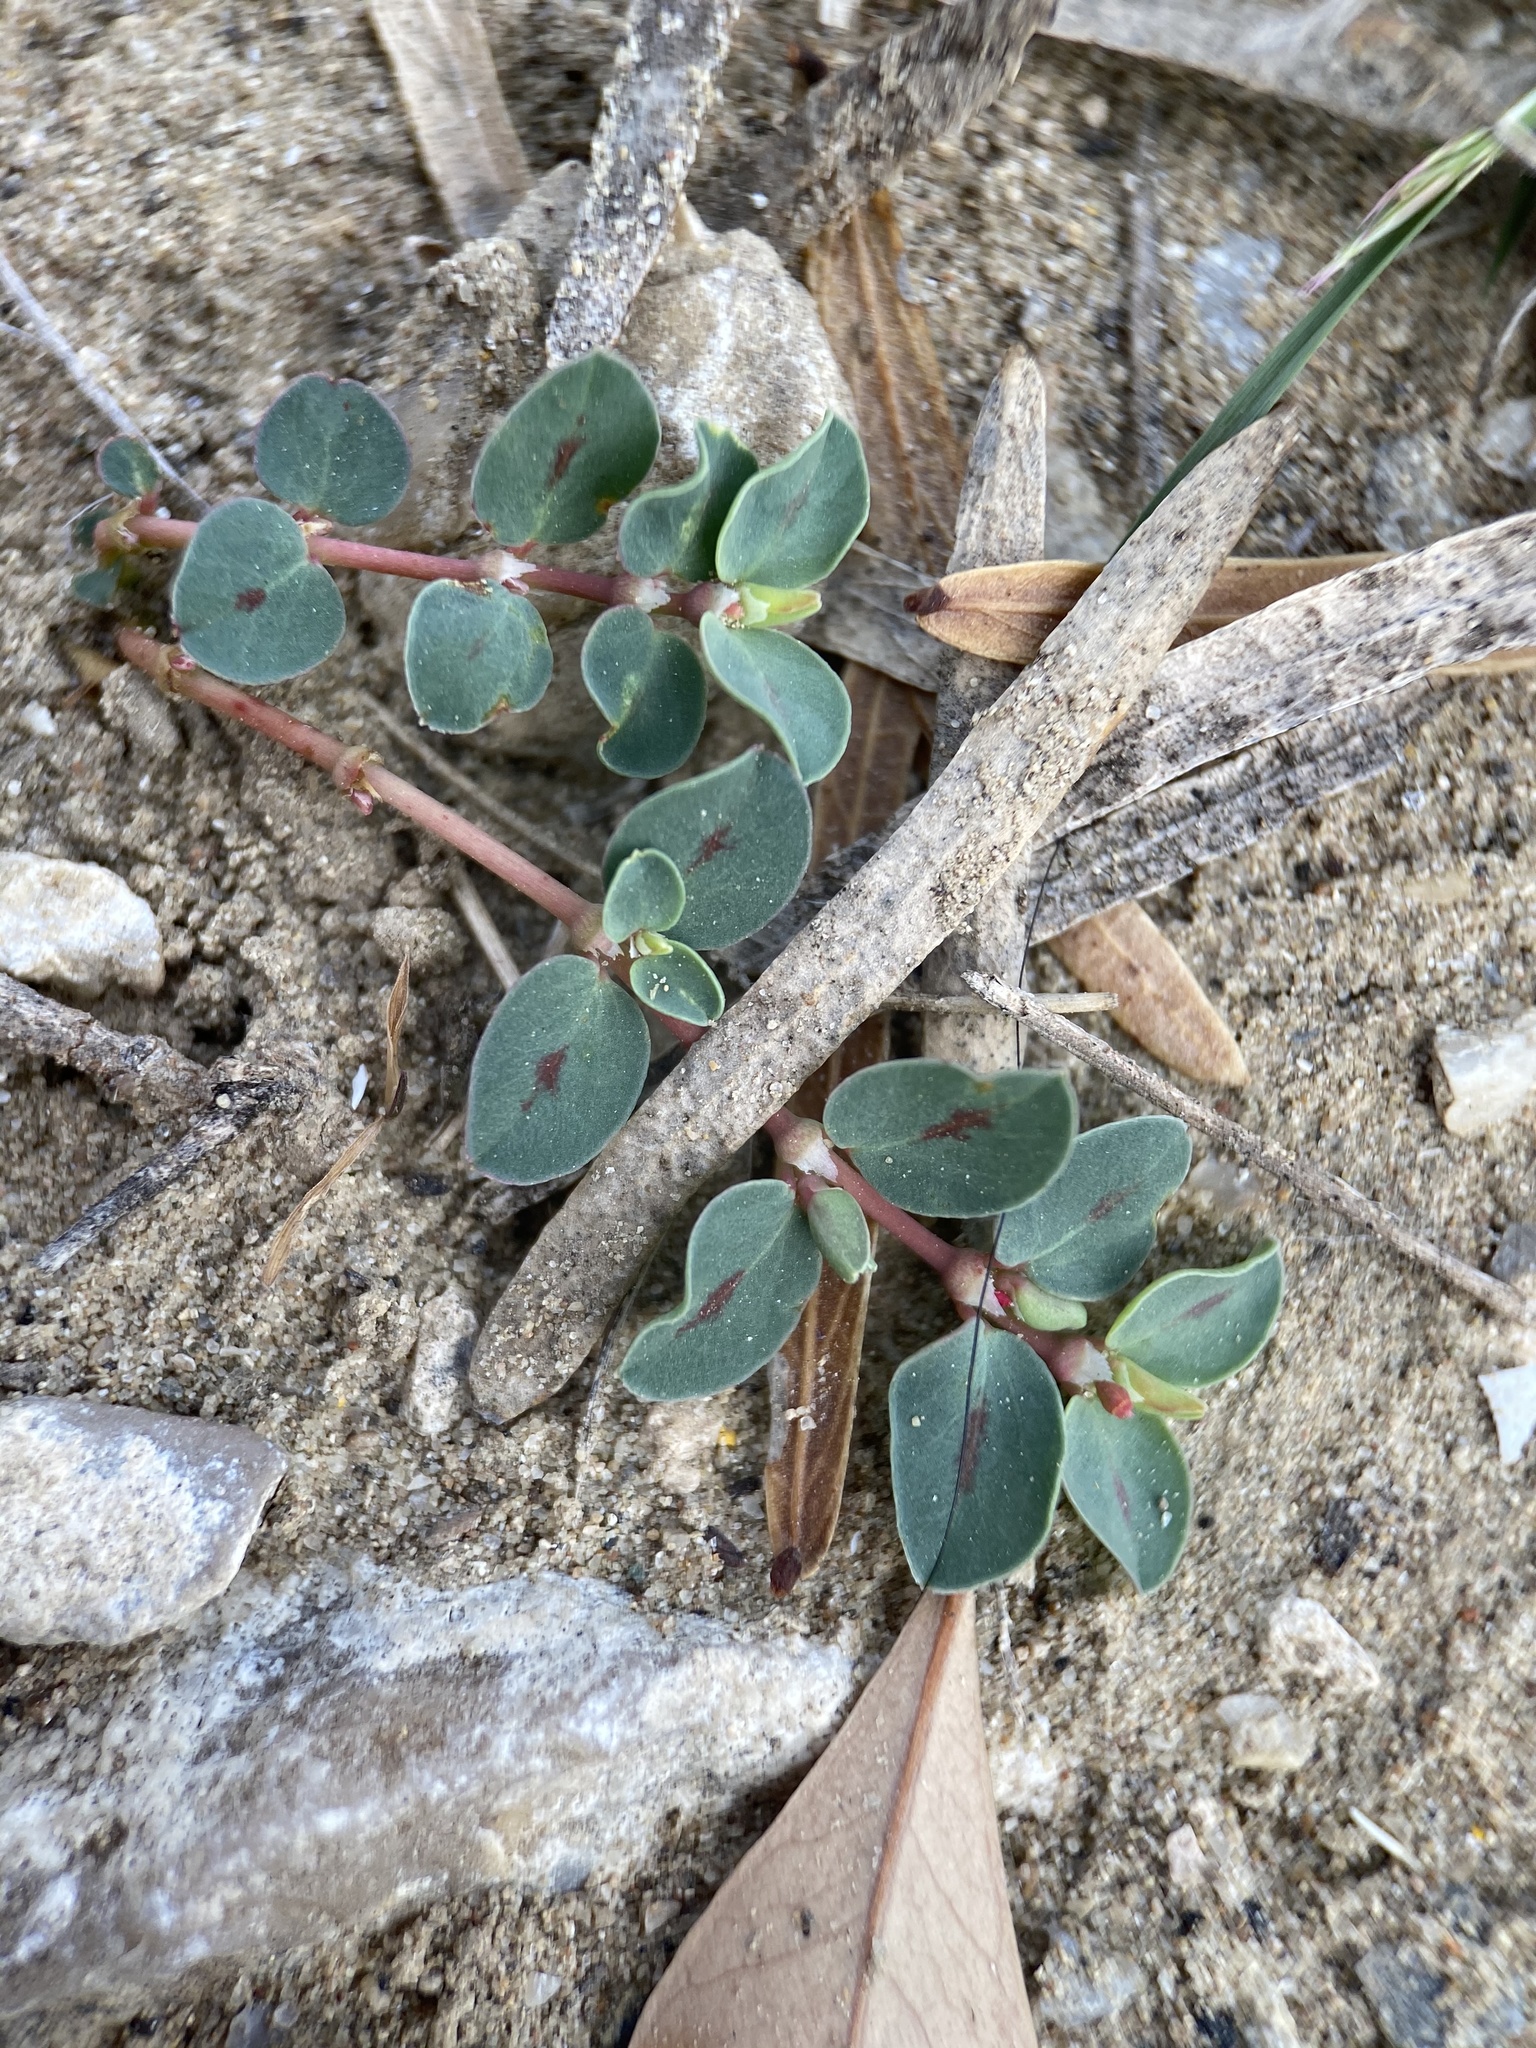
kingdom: Plantae
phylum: Tracheophyta
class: Magnoliopsida
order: Malpighiales
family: Euphorbiaceae
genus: Euphorbia
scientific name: Euphorbia albomarginata
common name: Whitemargin sandmat
